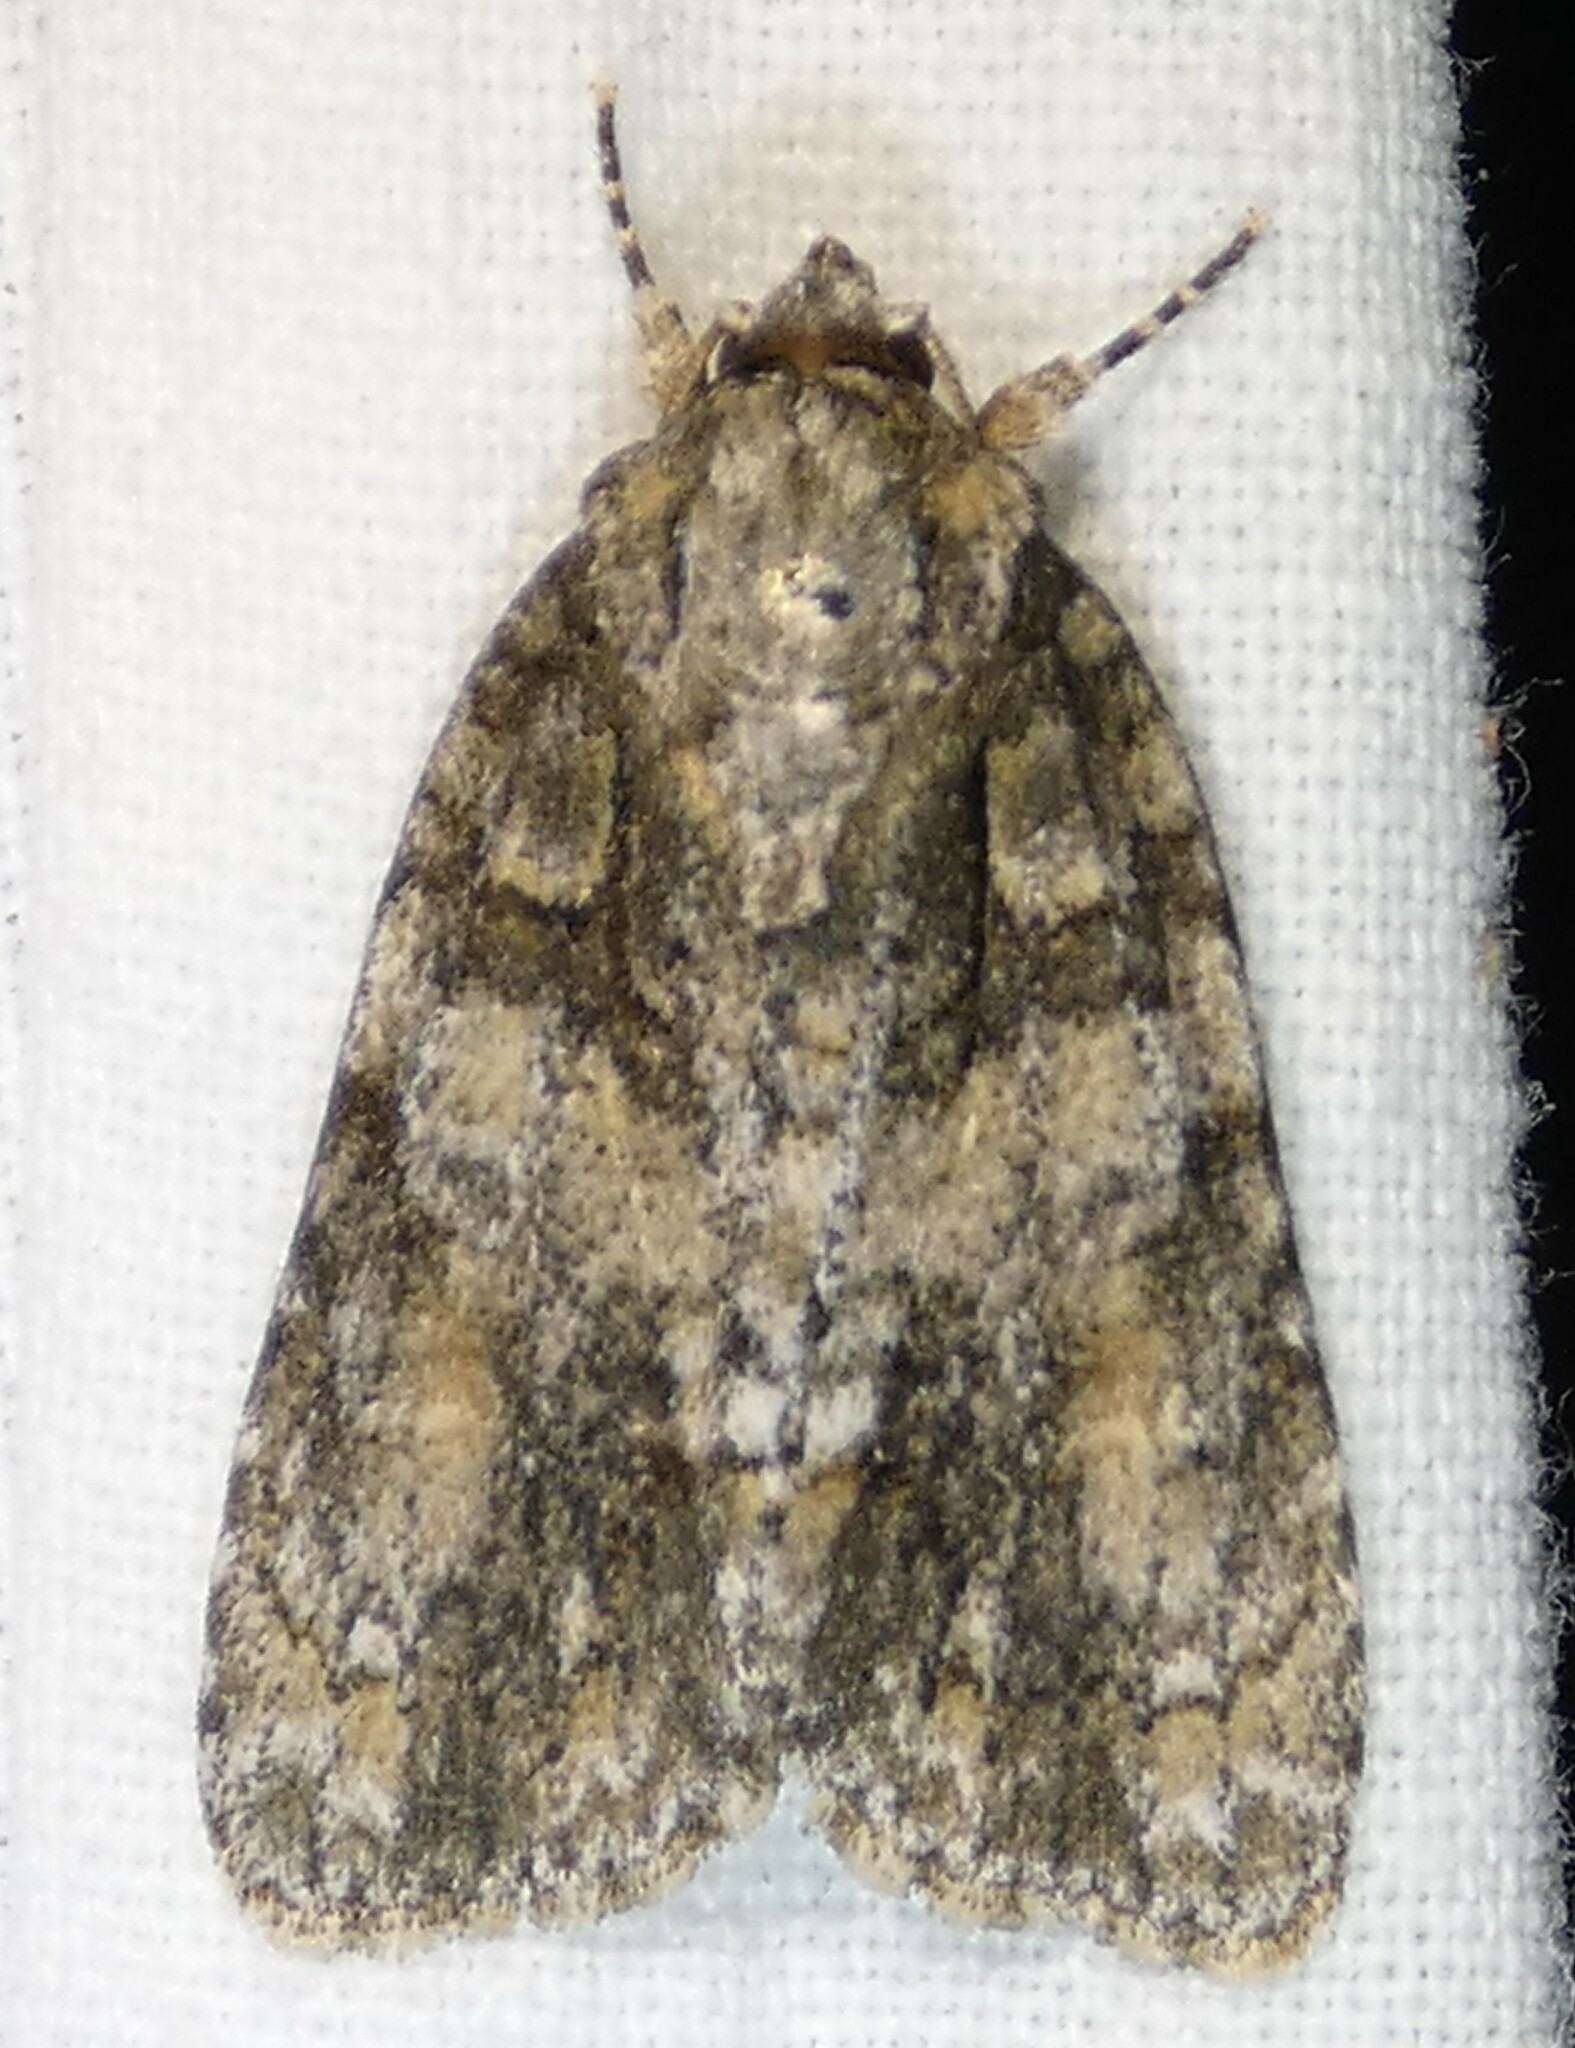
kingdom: Animalia
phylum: Arthropoda
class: Insecta
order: Lepidoptera
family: Noctuidae
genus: Acronicta
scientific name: Acronicta increta
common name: Eclipsed oak dagger
